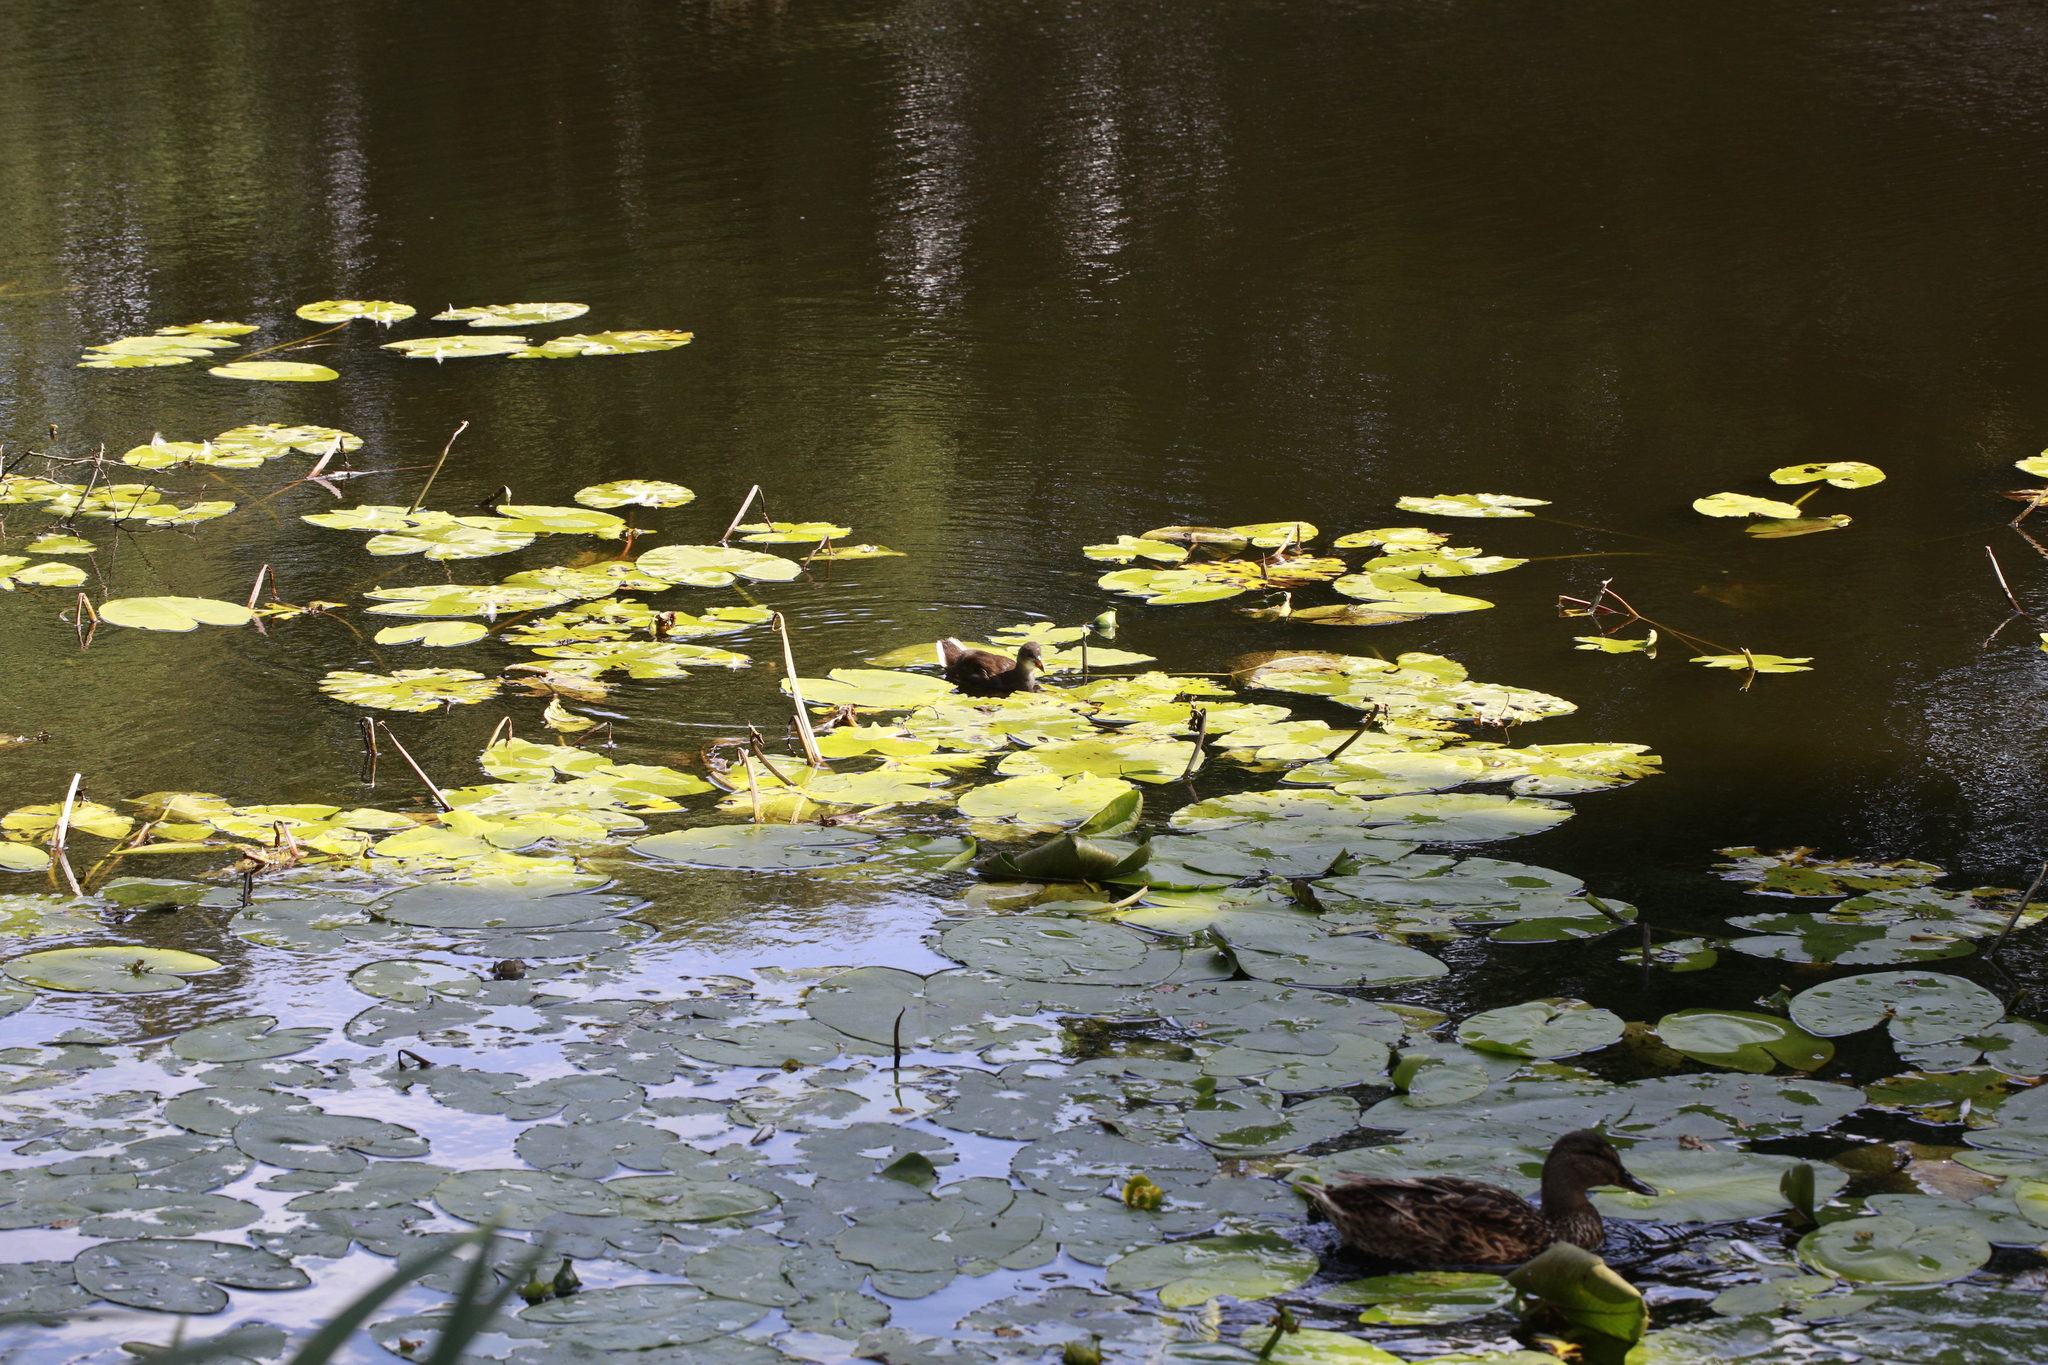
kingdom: Animalia
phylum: Chordata
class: Aves
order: Gruiformes
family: Rallidae
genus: Gallinula
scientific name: Gallinula chloropus
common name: Common moorhen
